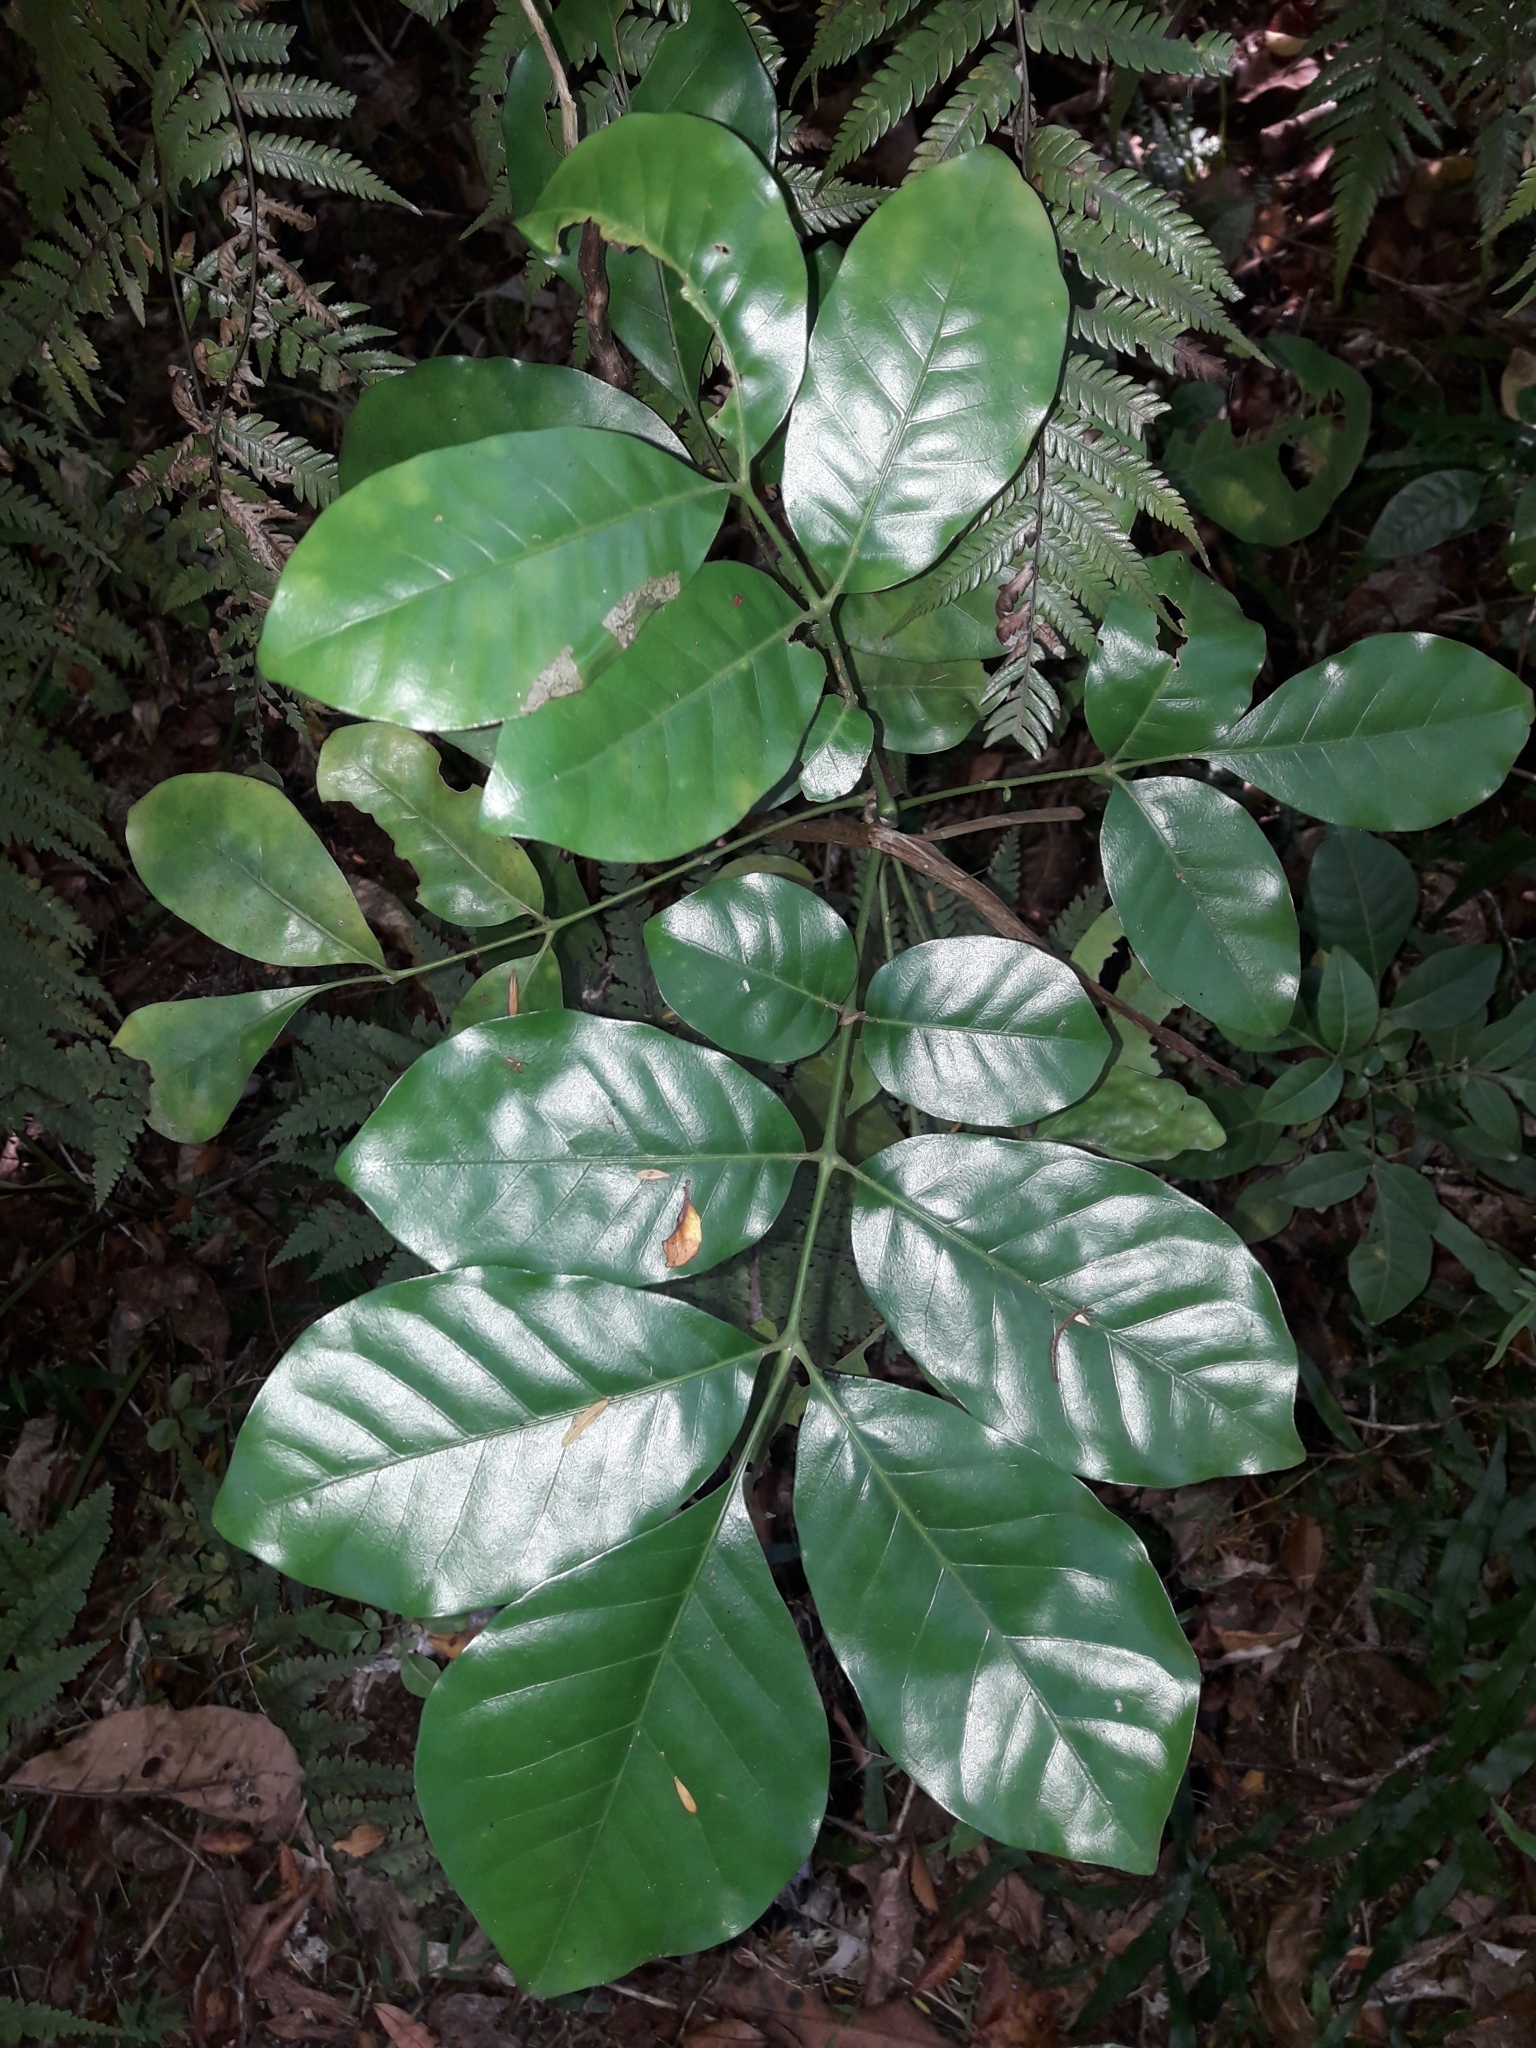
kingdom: Plantae
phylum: Tracheophyta
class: Magnoliopsida
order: Sapindales
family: Meliaceae
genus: Didymocheton
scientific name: Didymocheton spectabilis
